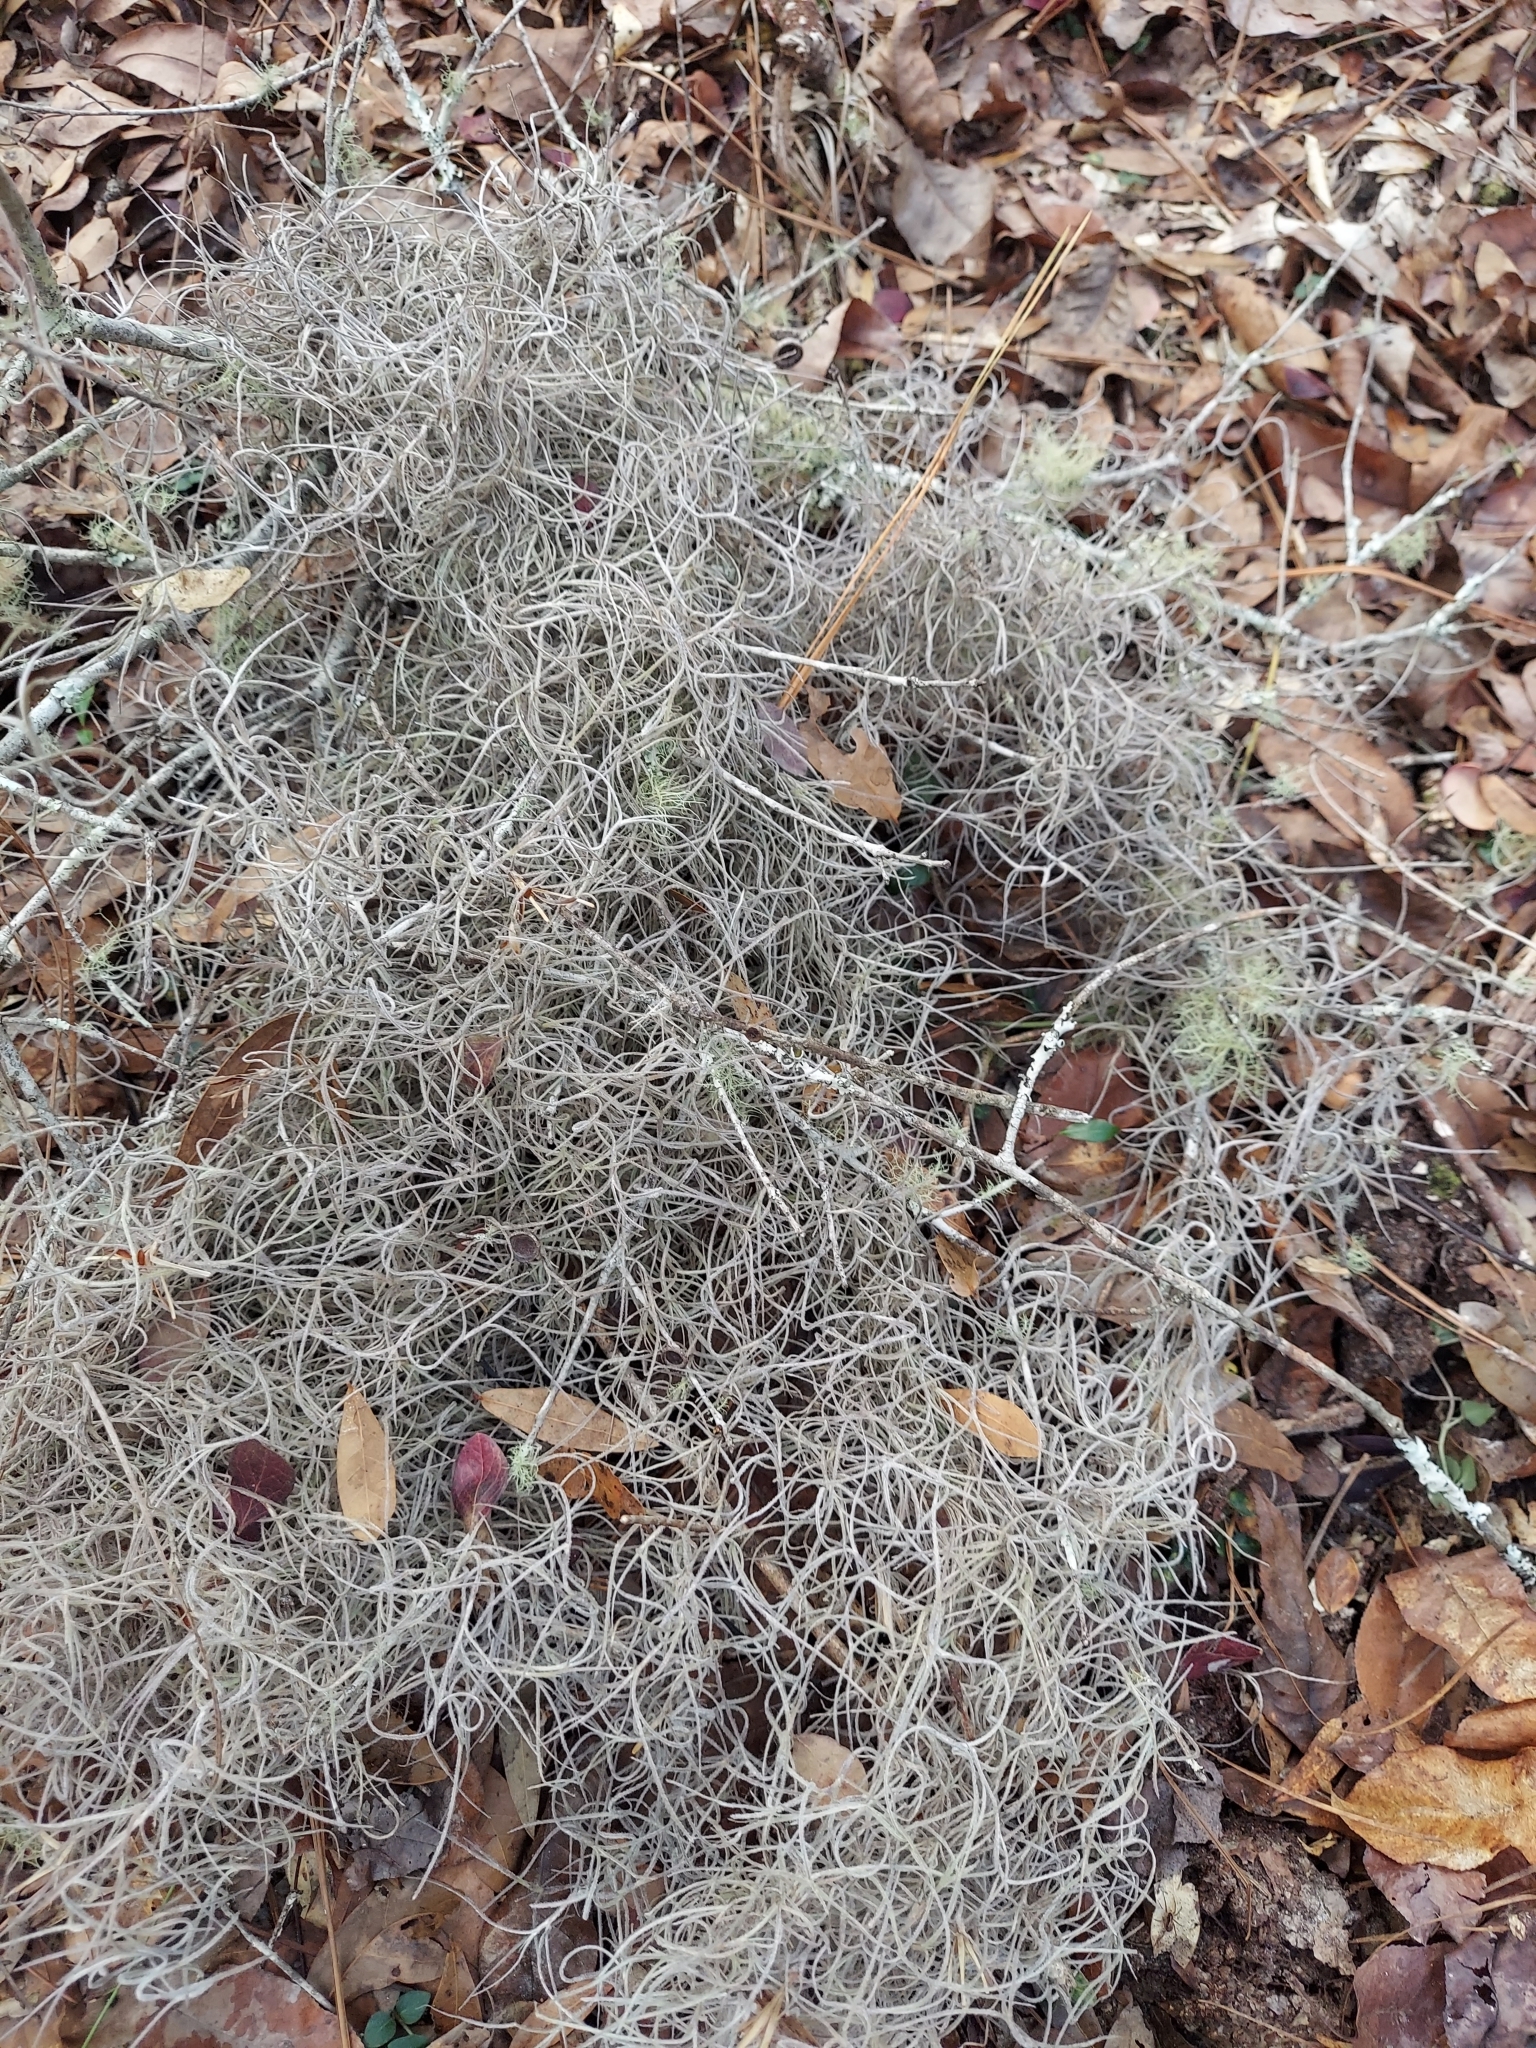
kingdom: Plantae
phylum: Tracheophyta
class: Liliopsida
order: Poales
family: Bromeliaceae
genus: Tillandsia
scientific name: Tillandsia usneoides
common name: Spanish moss
